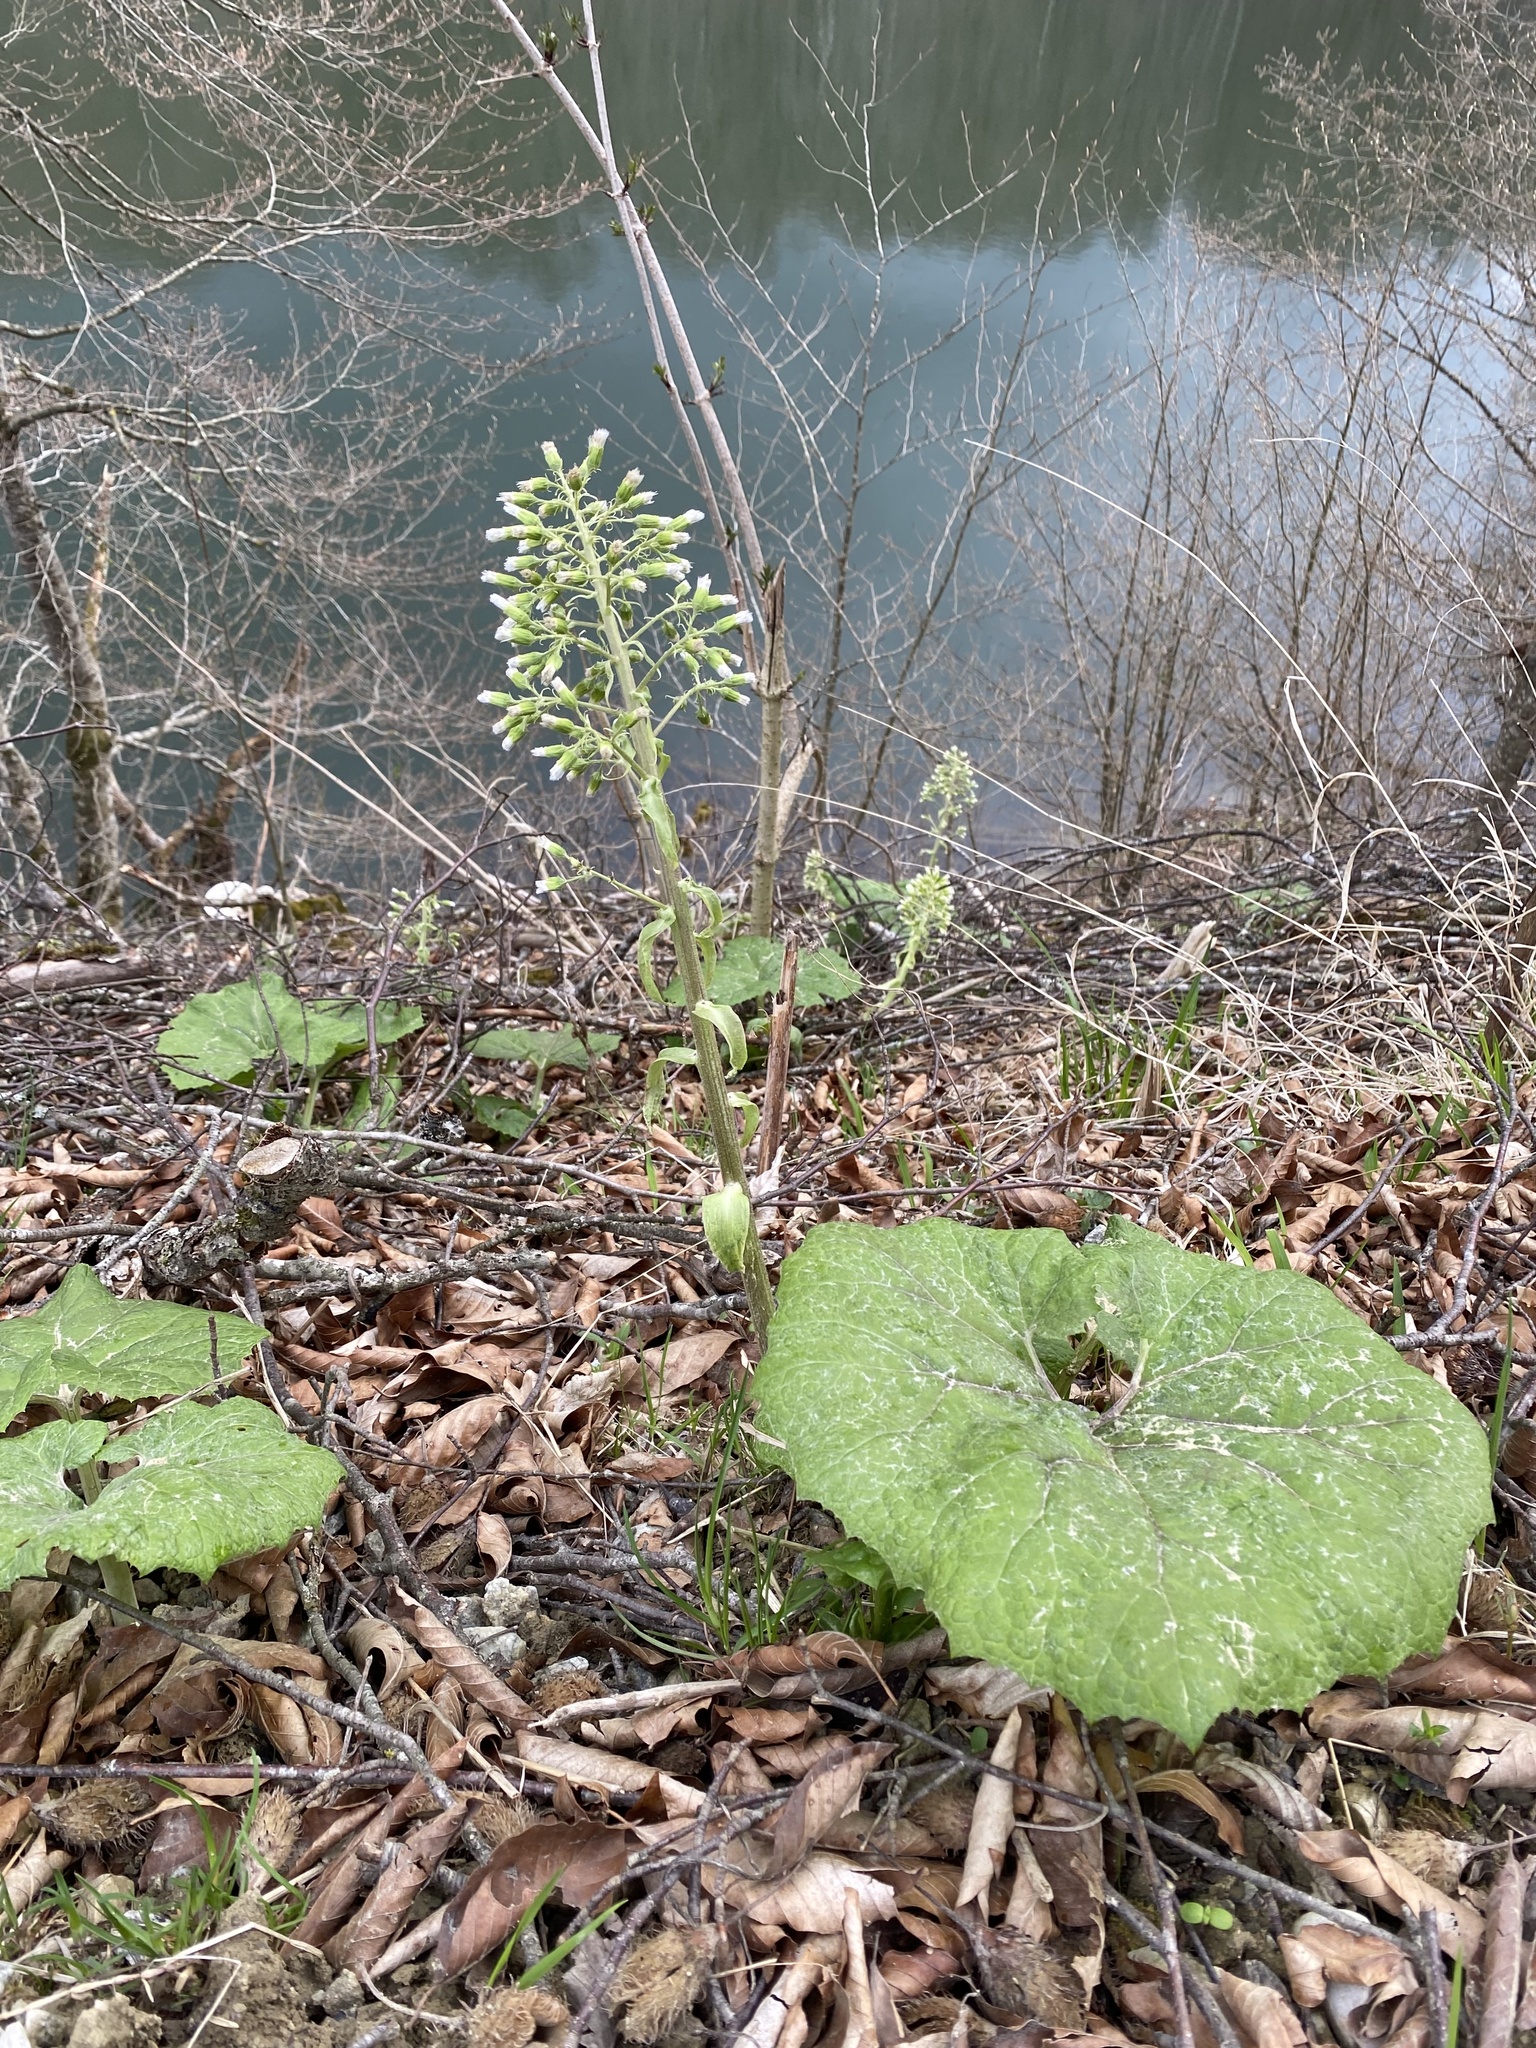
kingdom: Plantae
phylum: Tracheophyta
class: Magnoliopsida
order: Asterales
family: Asteraceae
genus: Petasites
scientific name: Petasites albus
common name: White butterbur
